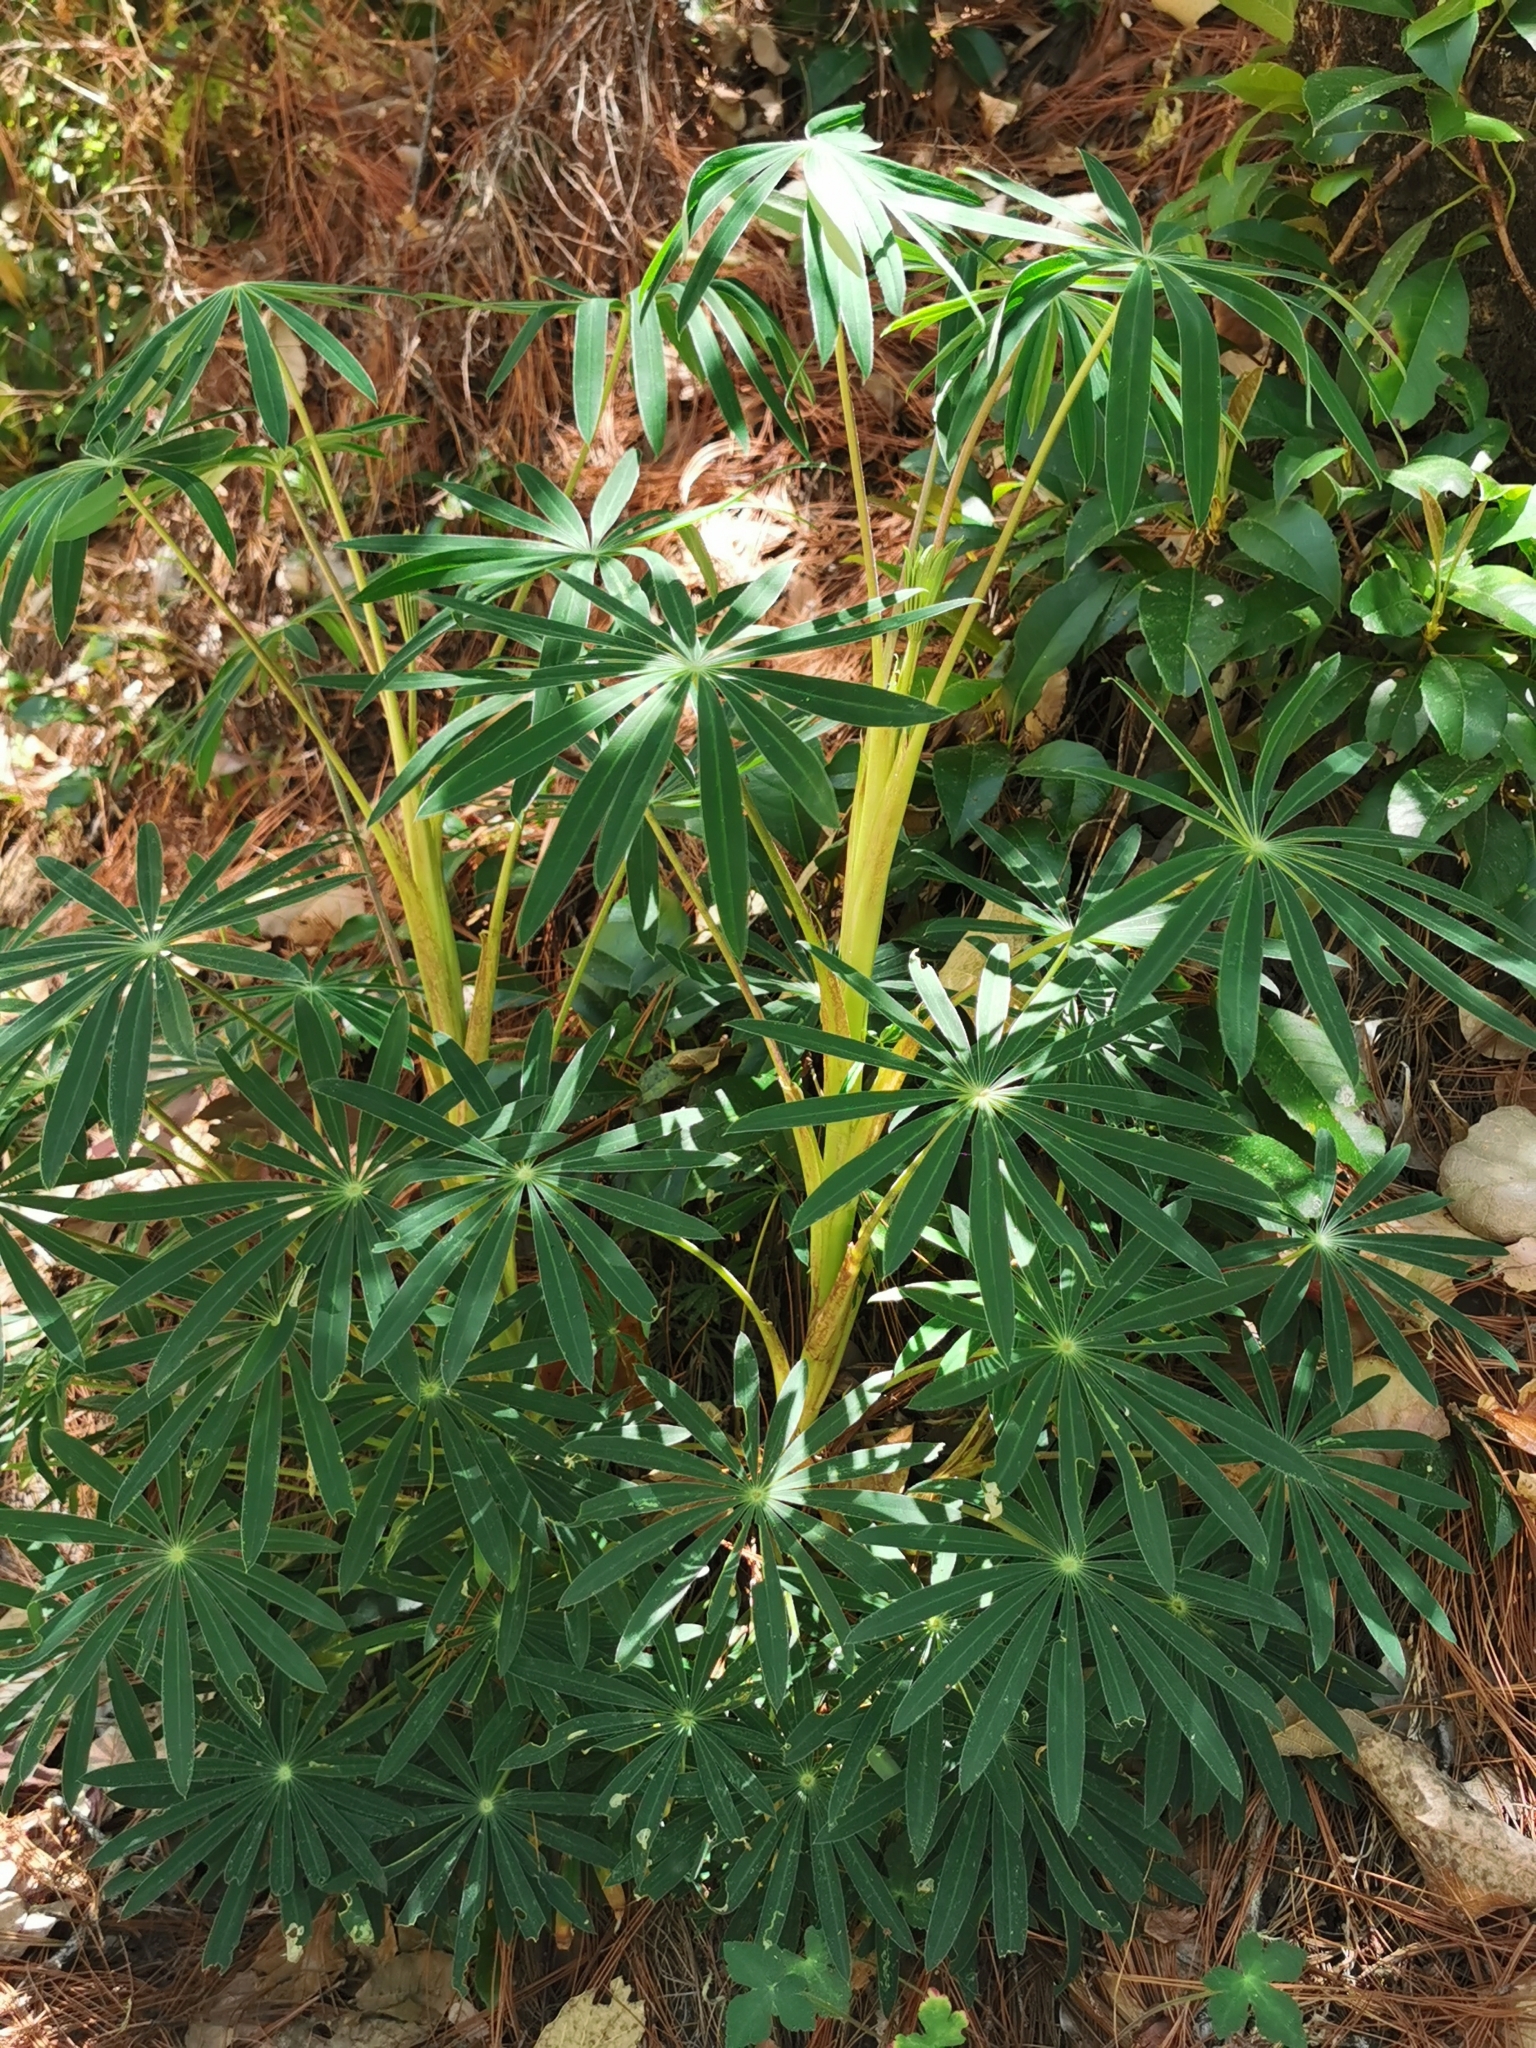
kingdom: Plantae
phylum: Tracheophyta
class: Magnoliopsida
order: Fabales
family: Fabaceae
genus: Lupinus
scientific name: Lupinus montanus
